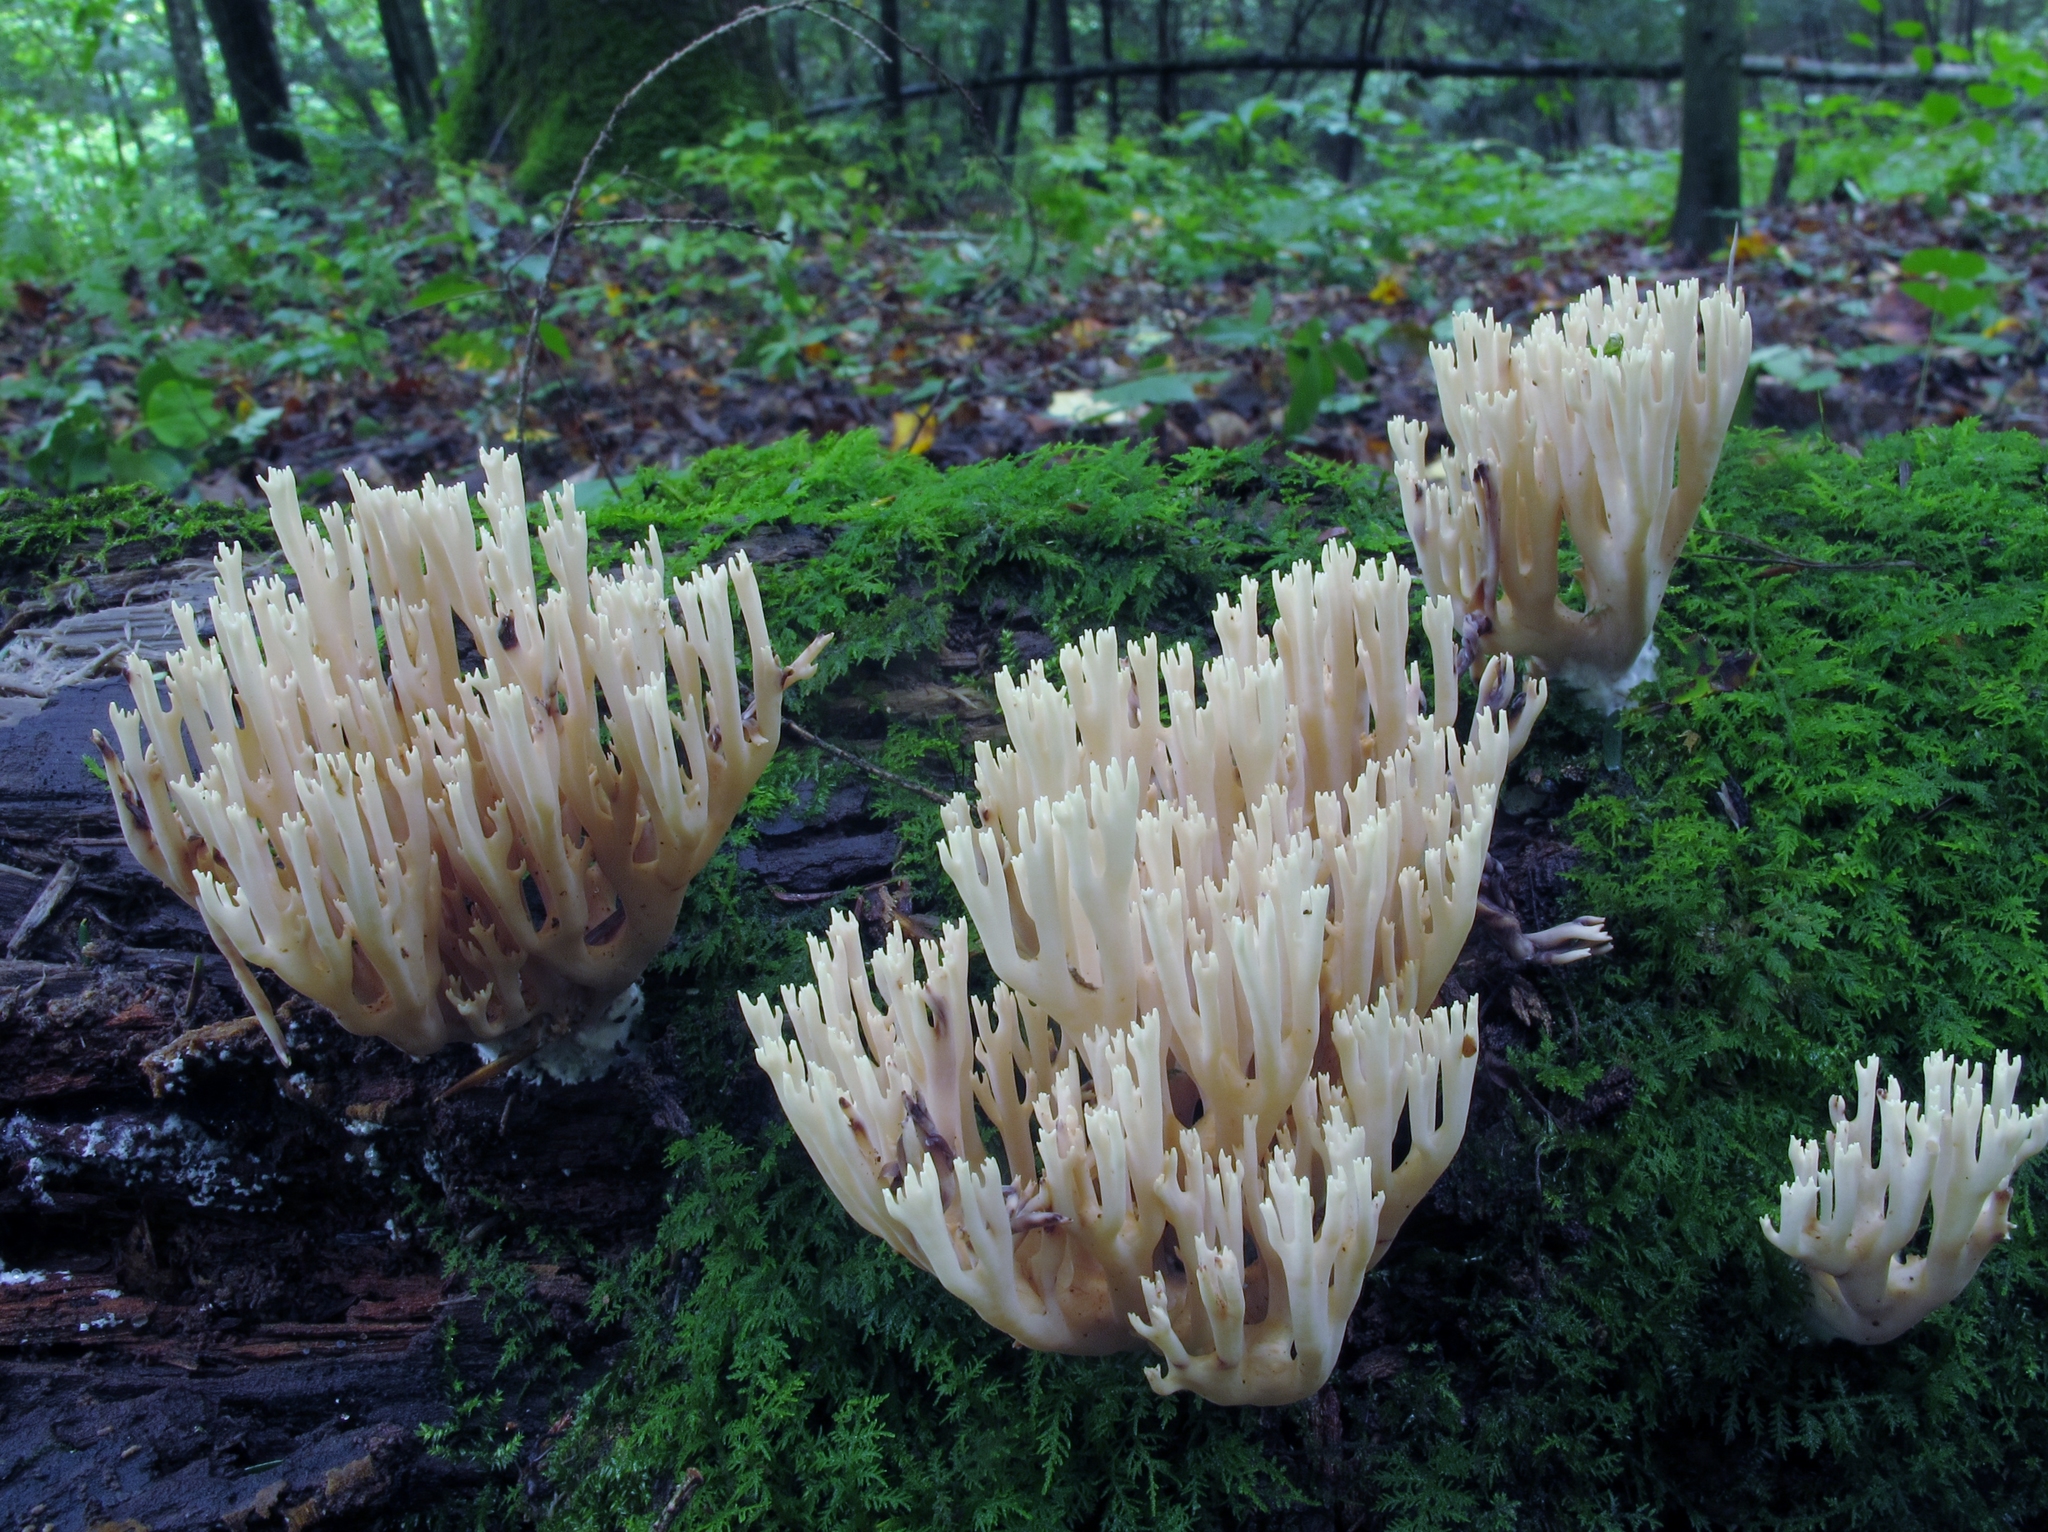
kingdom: Fungi
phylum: Basidiomycota
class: Agaricomycetes
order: Russulales
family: Auriscalpiaceae
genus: Artomyces
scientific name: Artomyces pyxidatus
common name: Crown-tipped coral fungus
